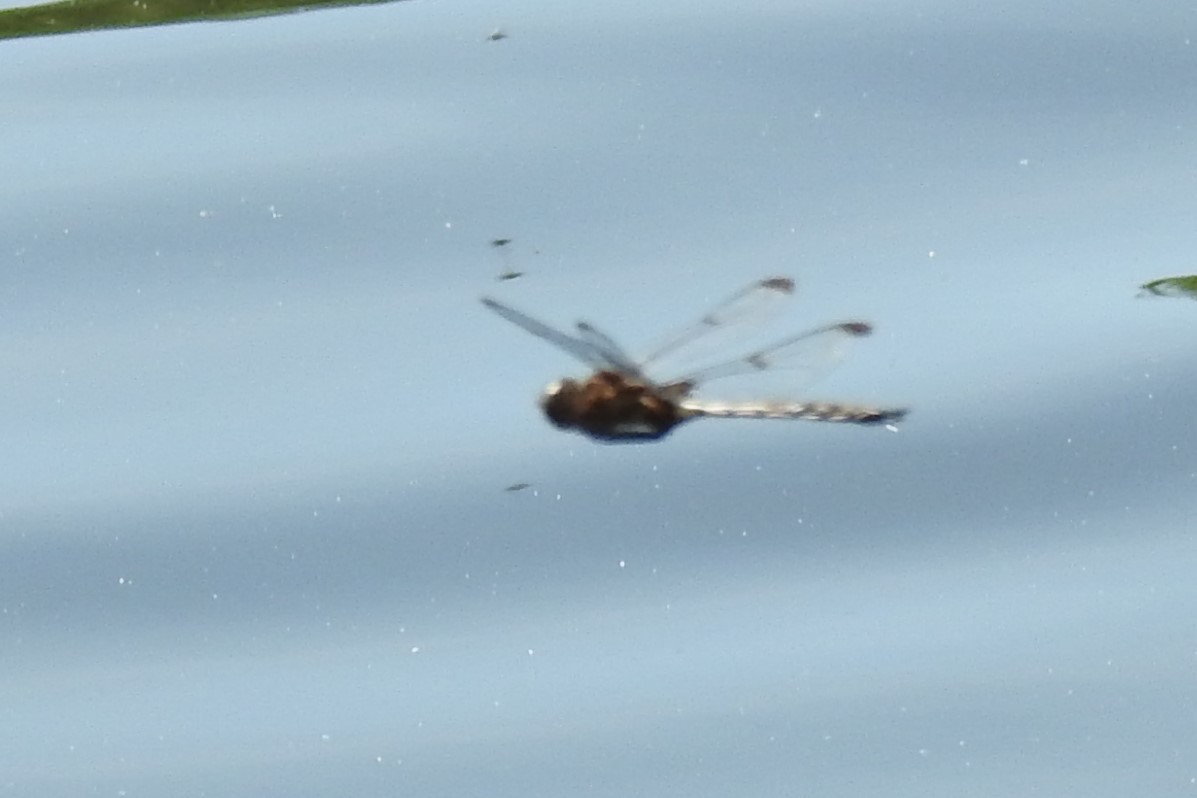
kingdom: Animalia
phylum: Arthropoda
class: Insecta
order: Odonata
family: Corduliidae
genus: Epitheca
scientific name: Epitheca princeps
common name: Prince baskettail
